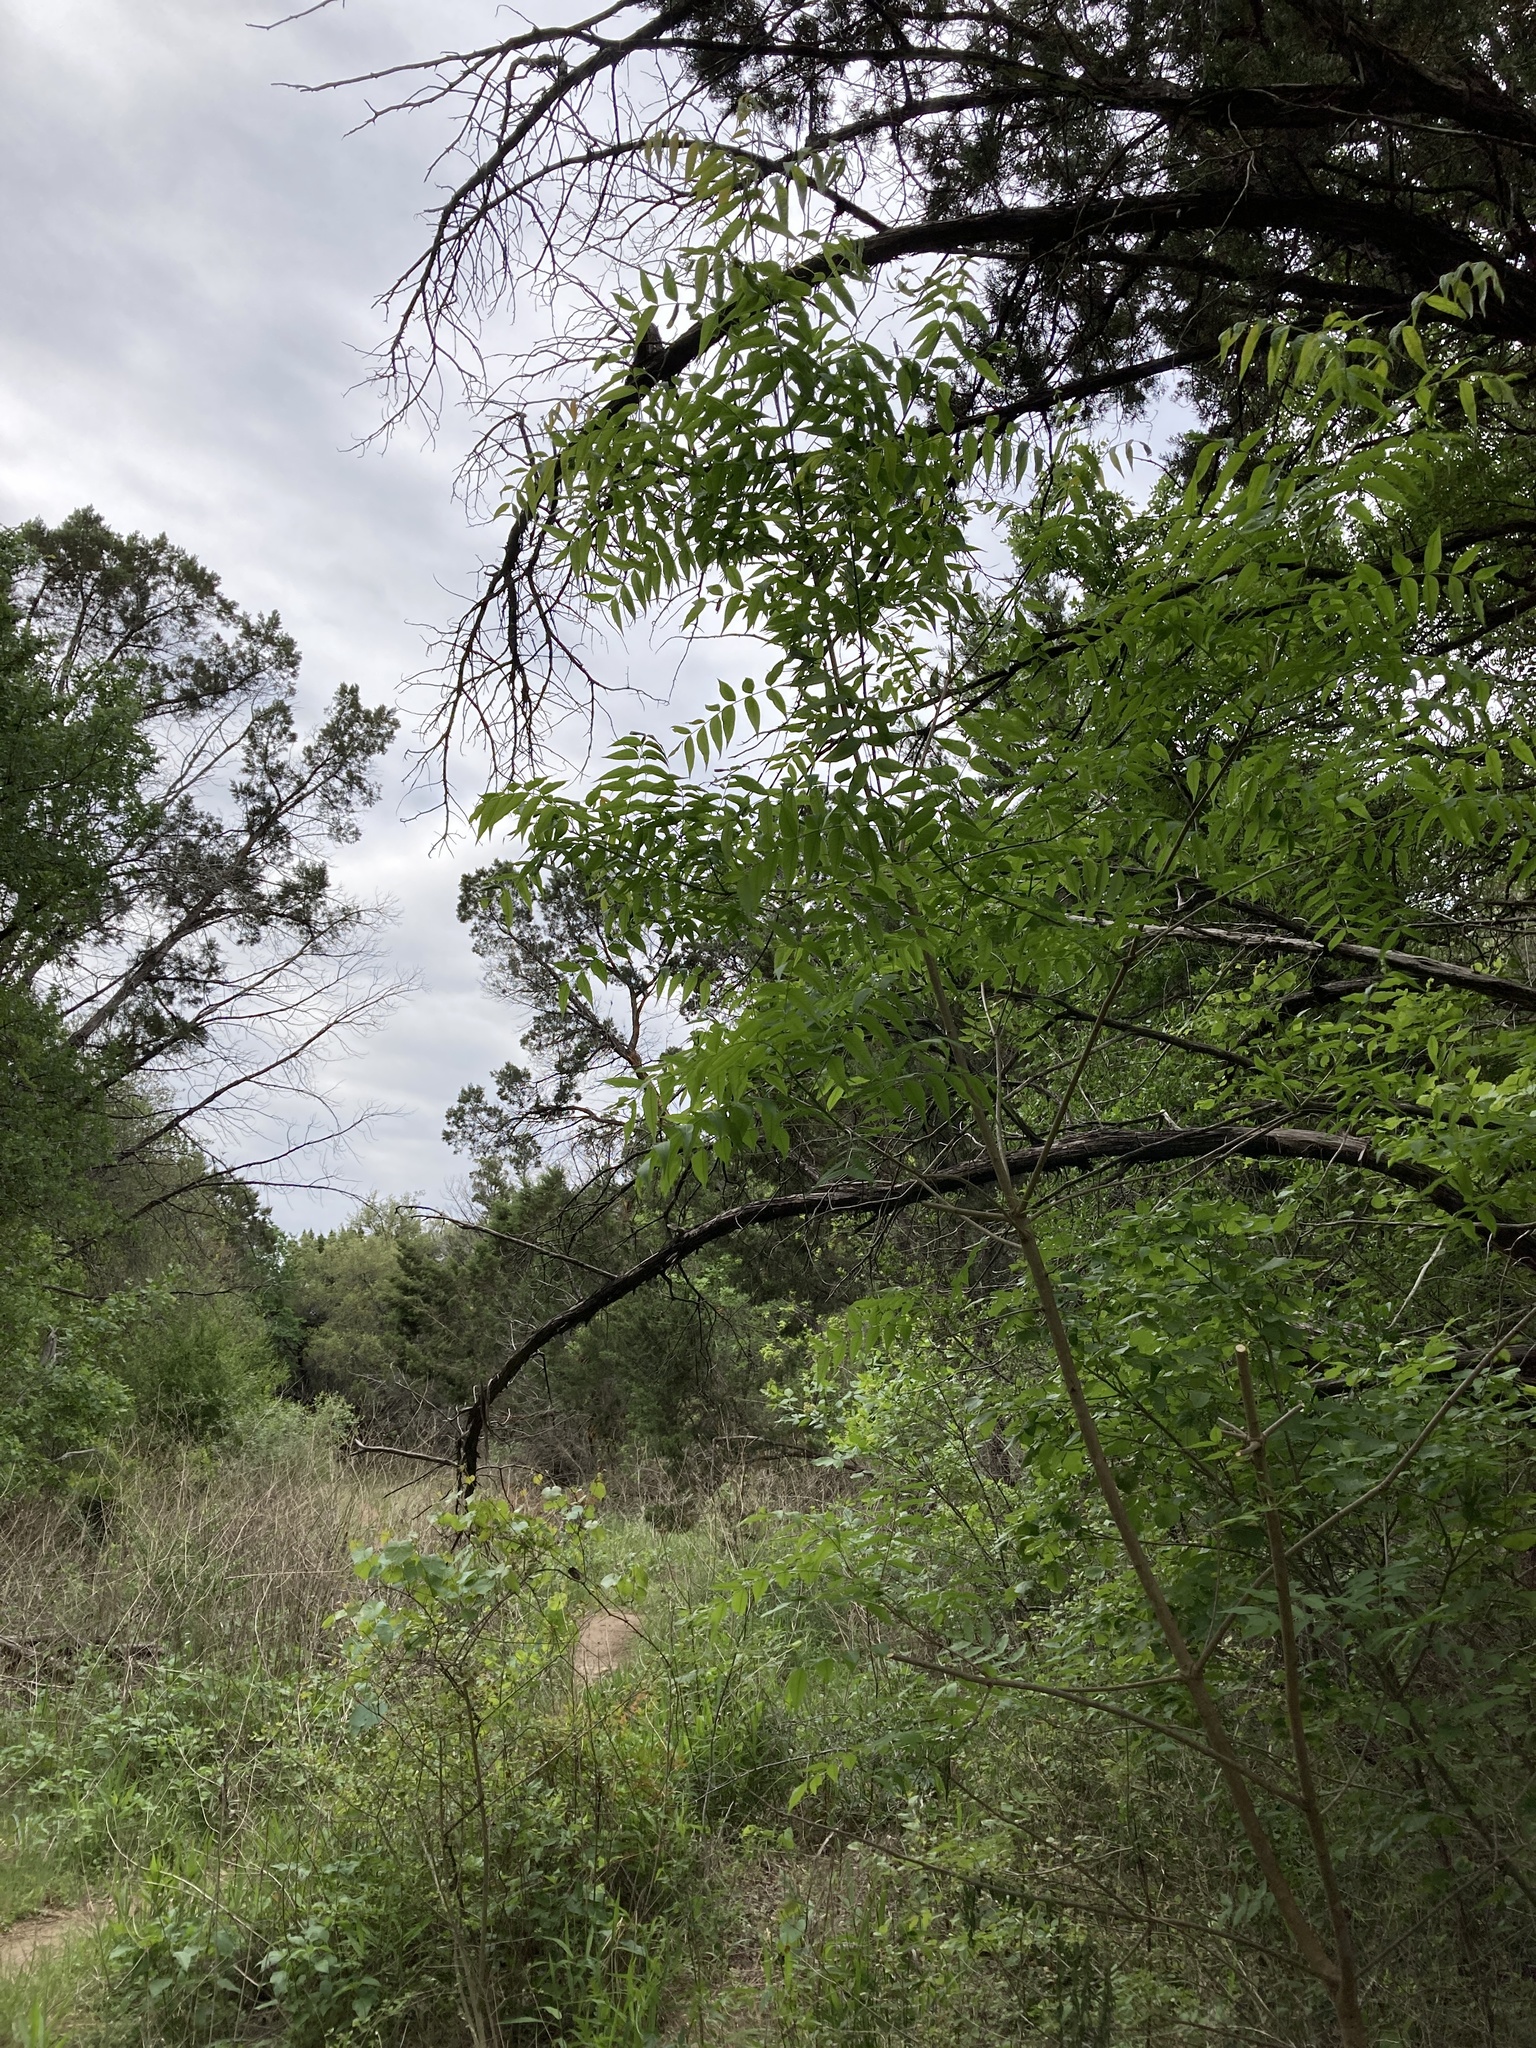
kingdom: Plantae
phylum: Tracheophyta
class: Magnoliopsida
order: Sapindales
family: Anacardiaceae
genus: Pistacia
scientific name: Pistacia chinensis
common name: Chinese pistache
